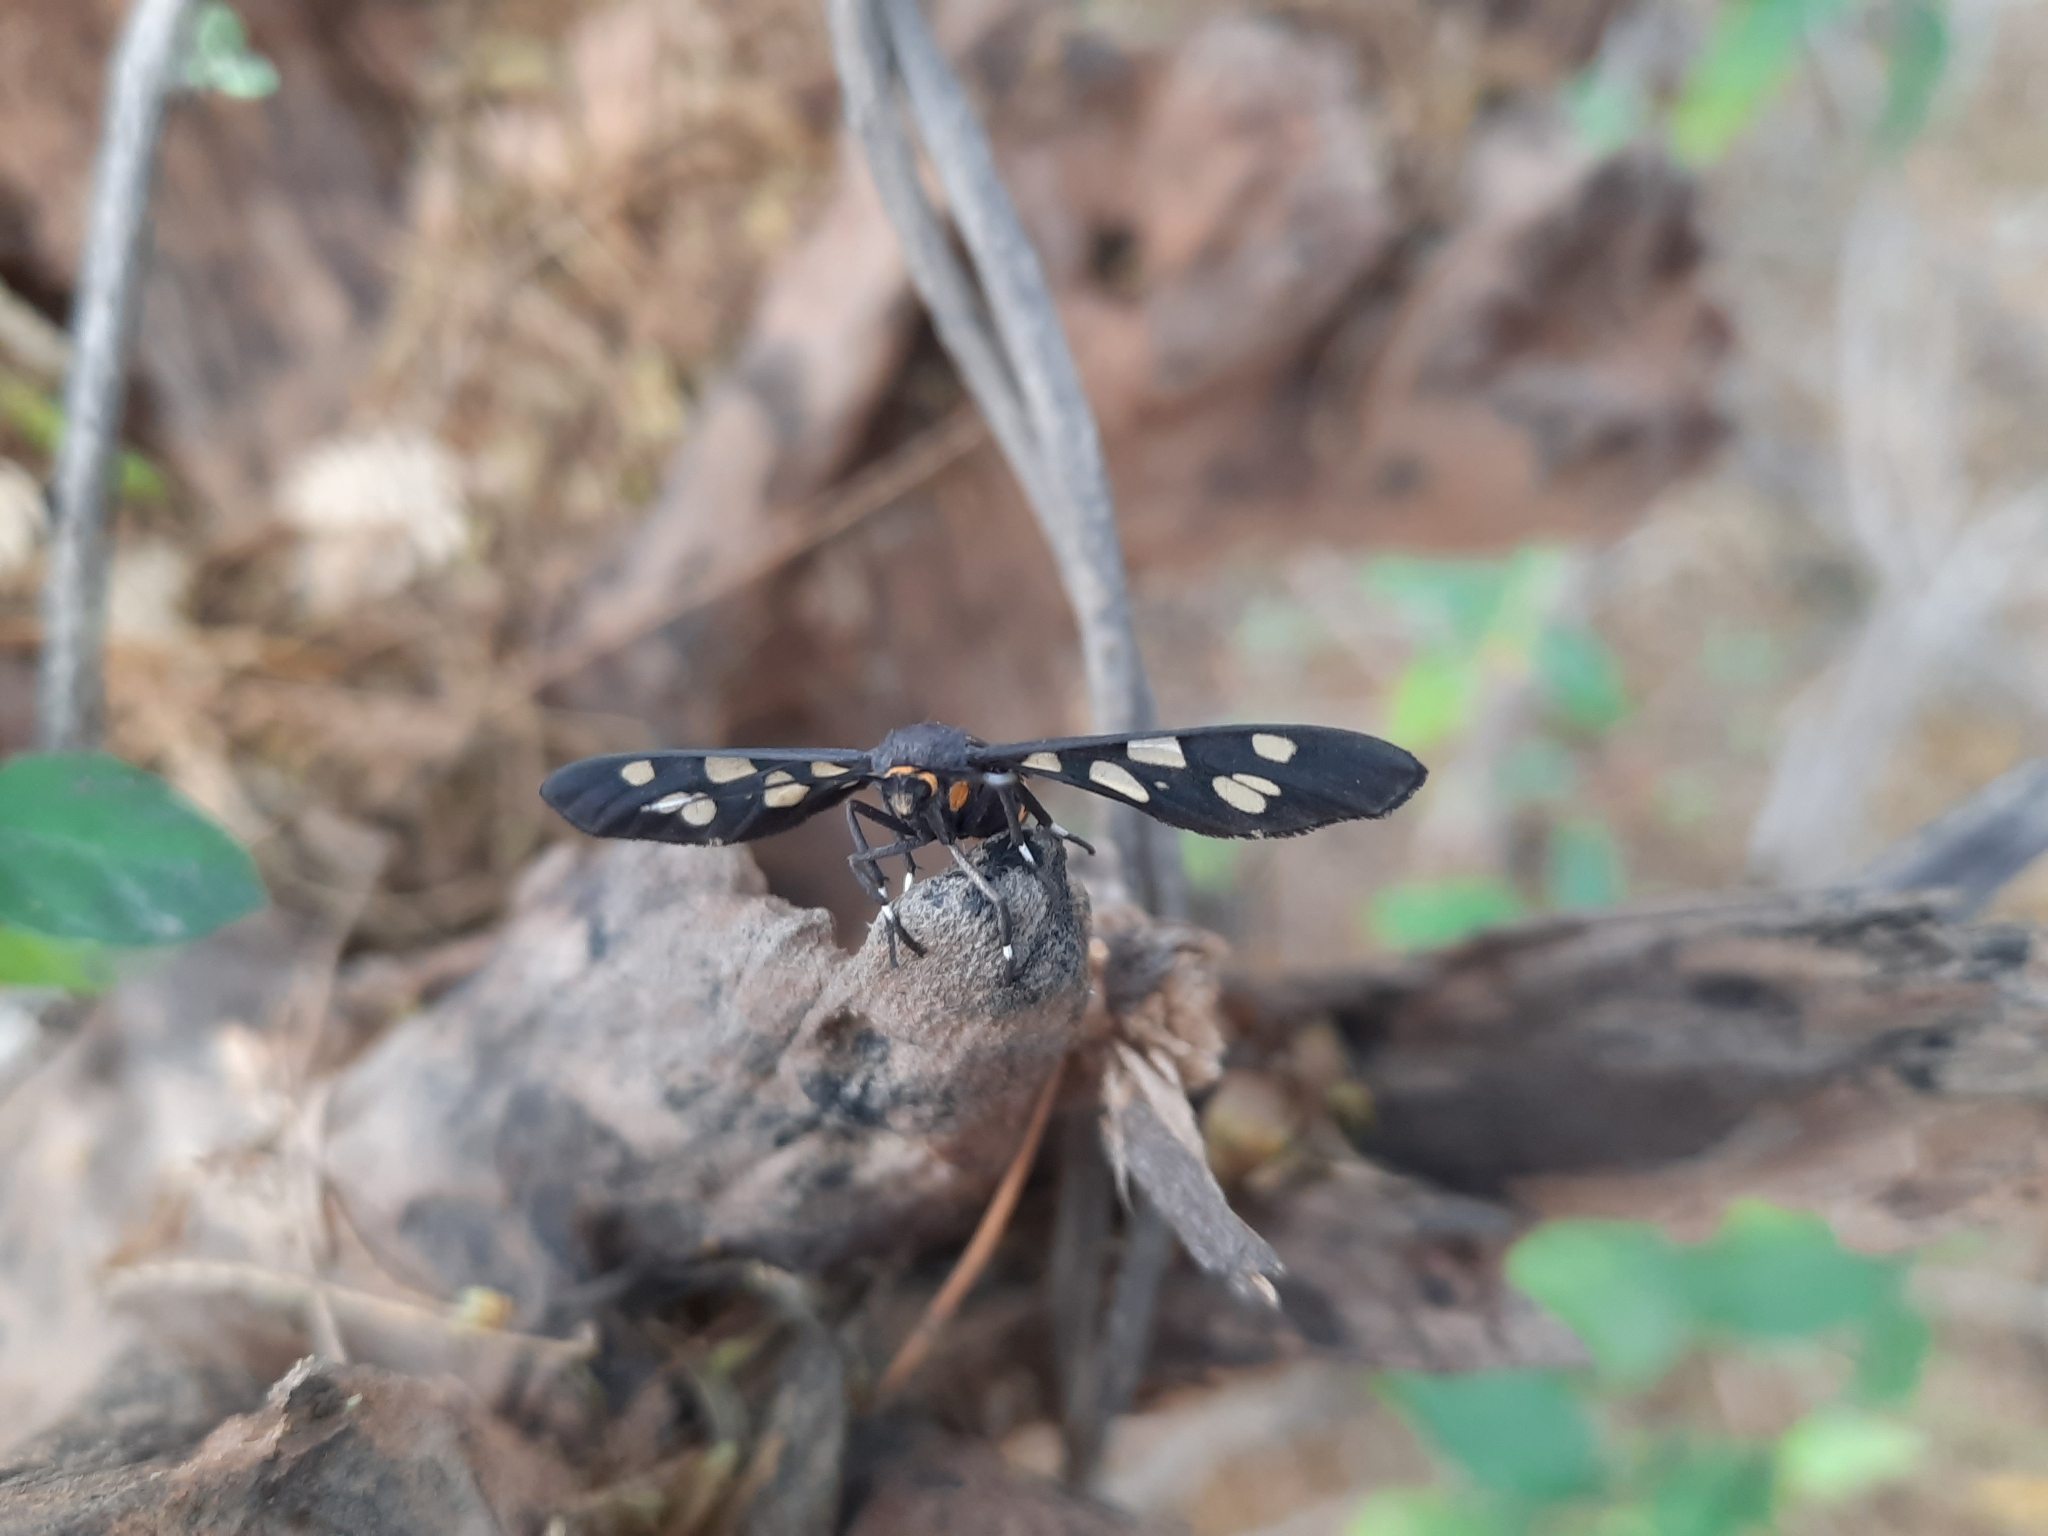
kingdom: Animalia
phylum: Arthropoda
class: Insecta
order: Lepidoptera
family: Erebidae
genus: Amata
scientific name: Amata cyssea
